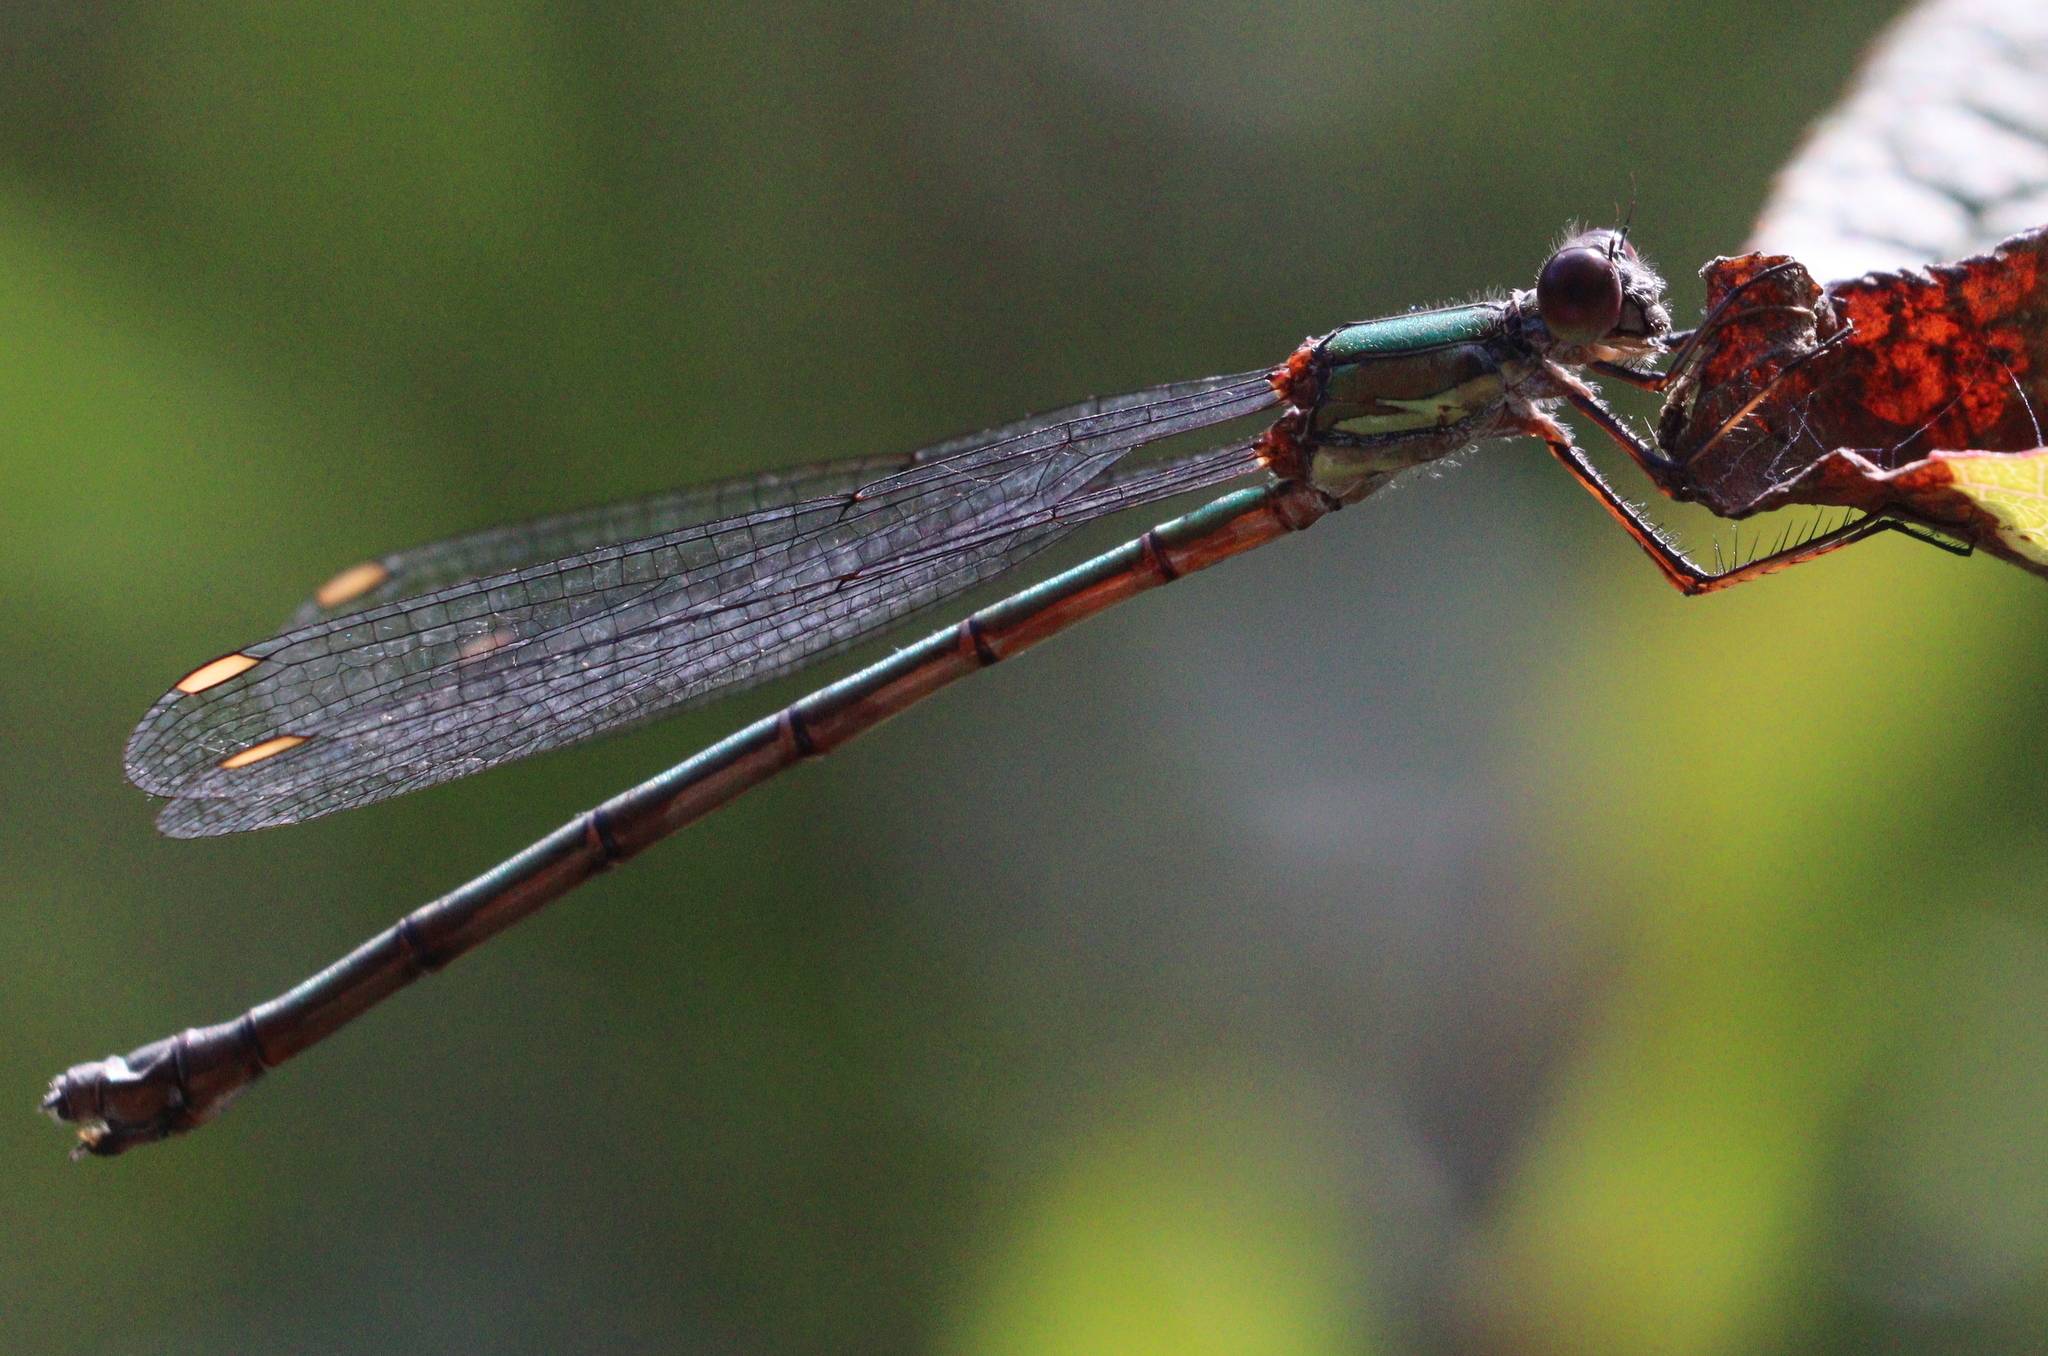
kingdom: Animalia
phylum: Arthropoda
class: Insecta
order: Odonata
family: Lestidae
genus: Chalcolestes
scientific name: Chalcolestes viridis
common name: Green emerald damselfly
